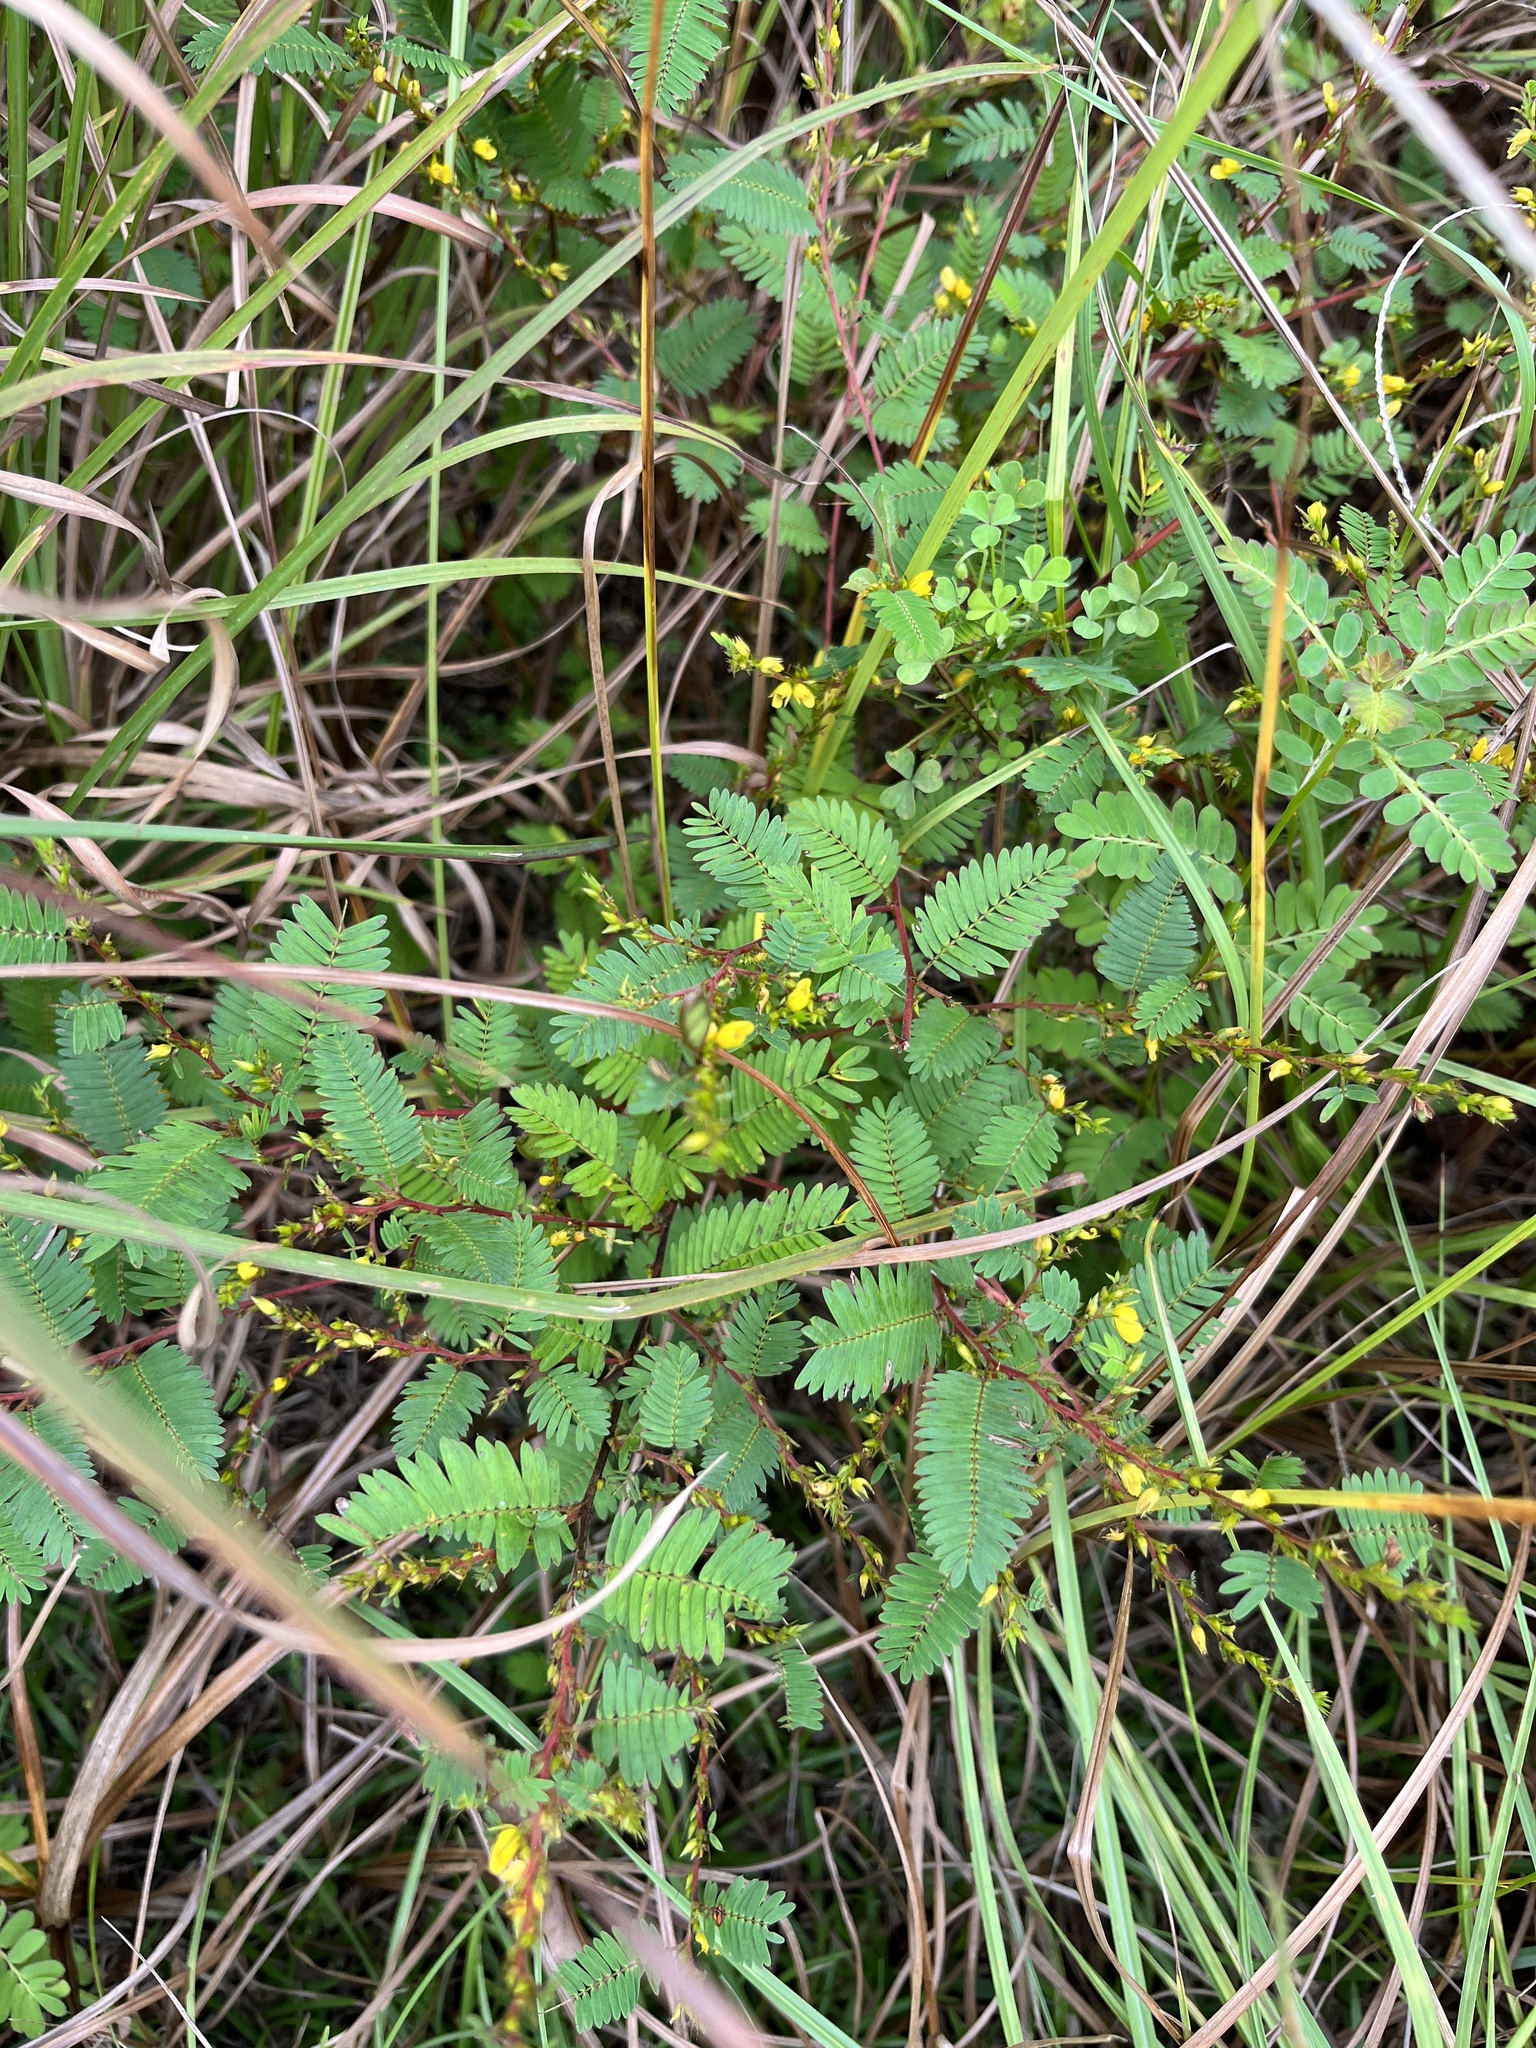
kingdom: Plantae
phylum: Tracheophyta
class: Magnoliopsida
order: Fabales
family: Fabaceae
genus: Chamaecrista
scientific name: Chamaecrista nictitans
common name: Sensitive cassia
